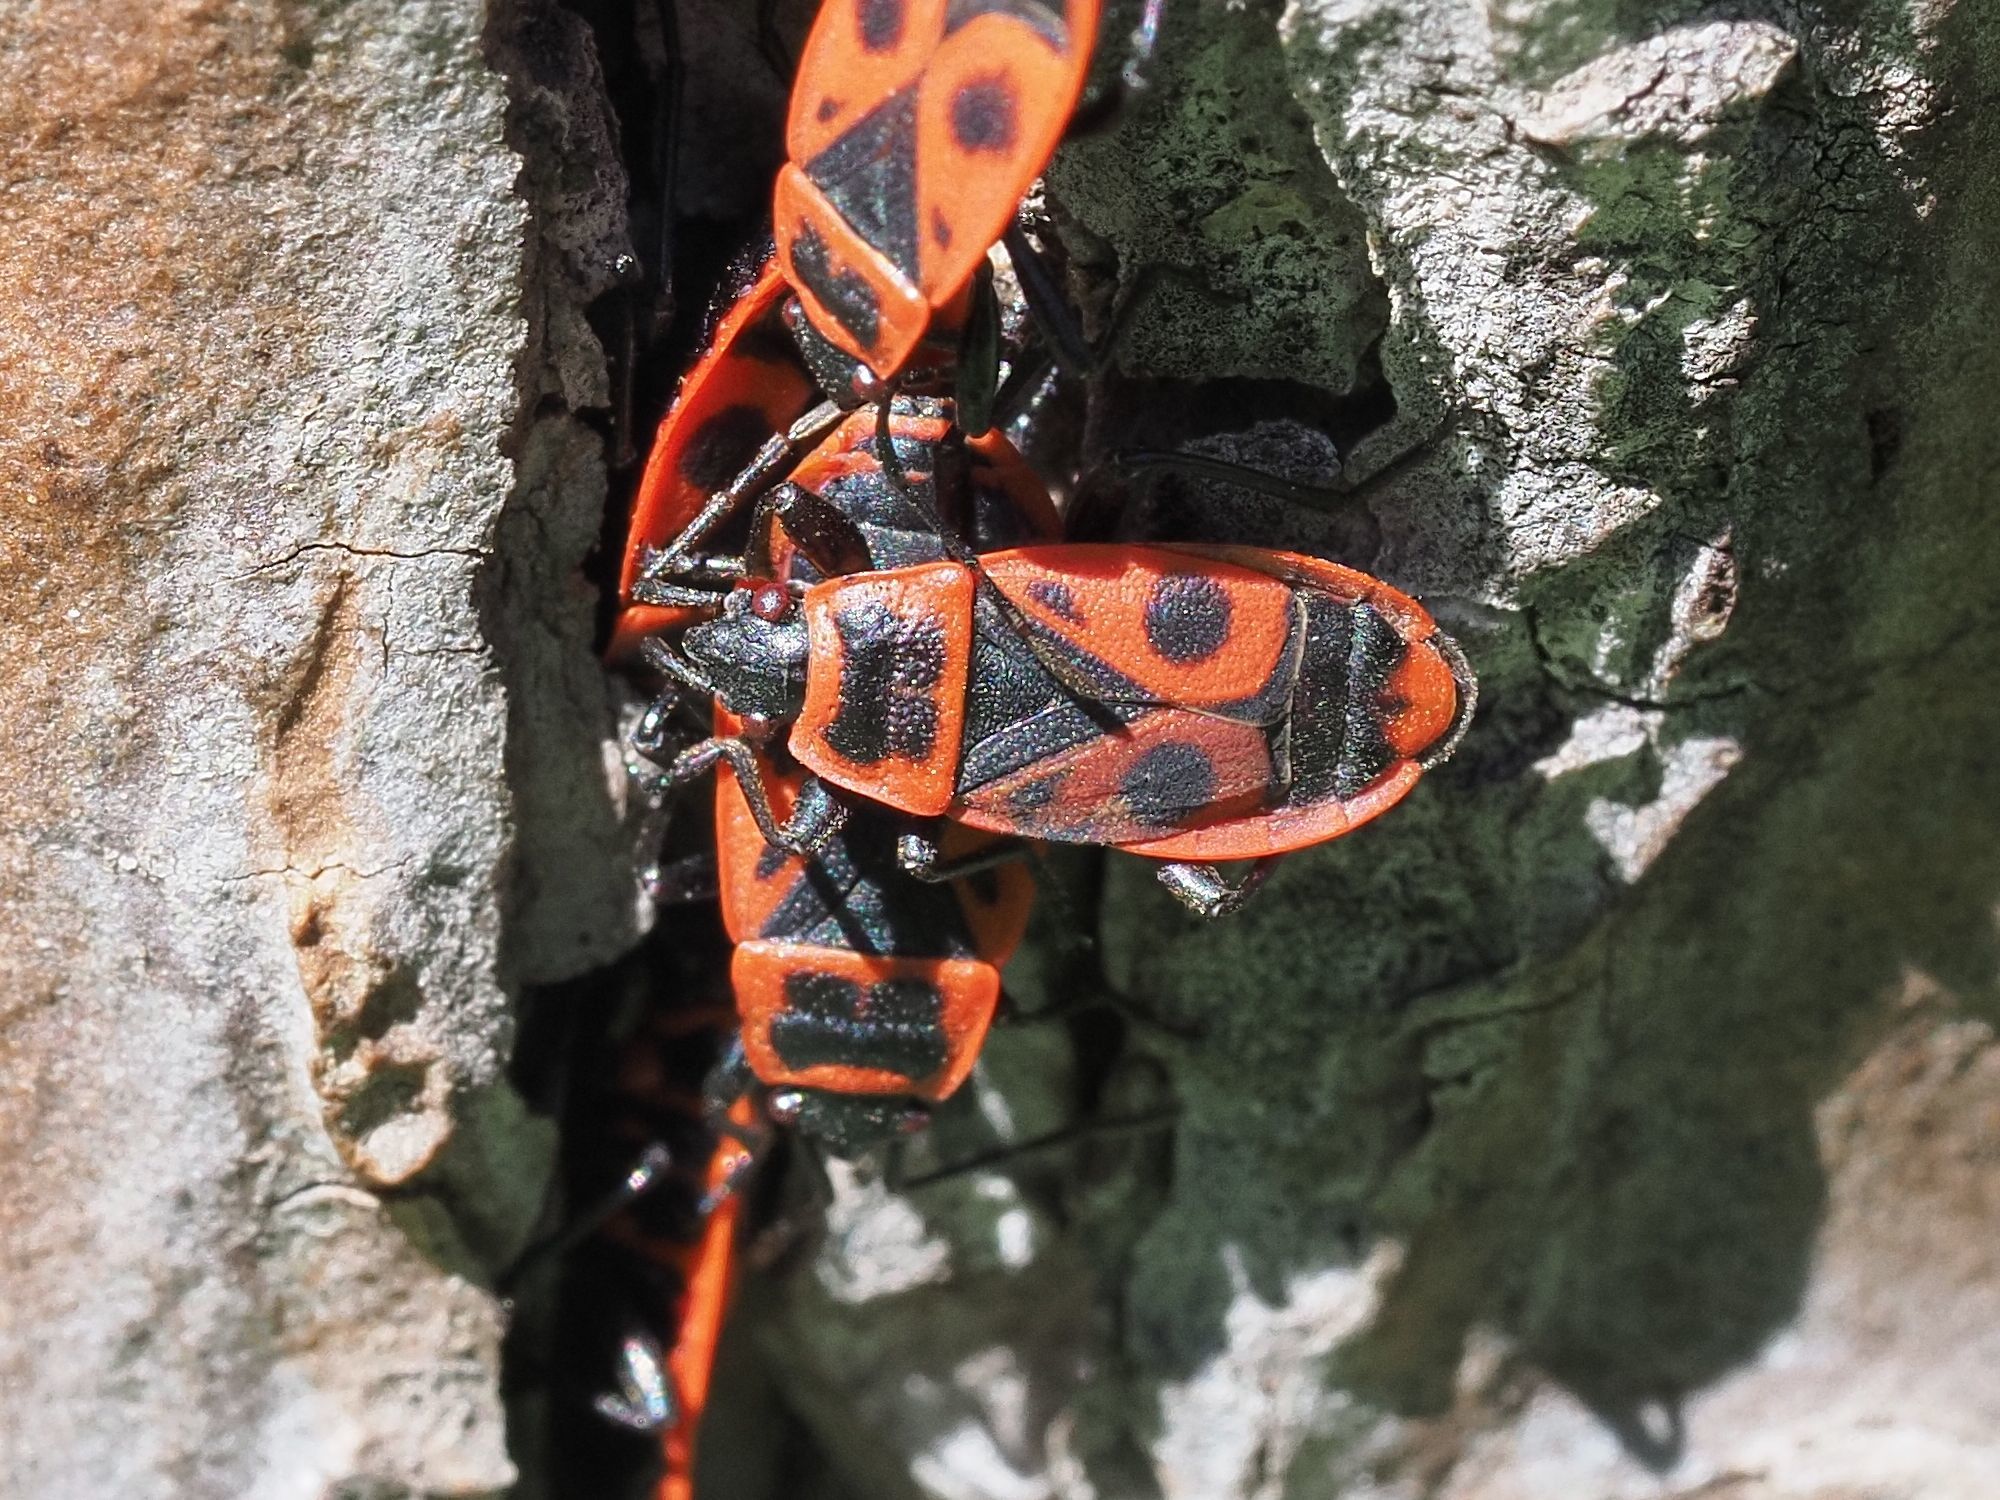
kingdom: Animalia
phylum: Arthropoda
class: Insecta
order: Hemiptera
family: Pyrrhocoridae
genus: Pyrrhocoris
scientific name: Pyrrhocoris apterus
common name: Firebug
